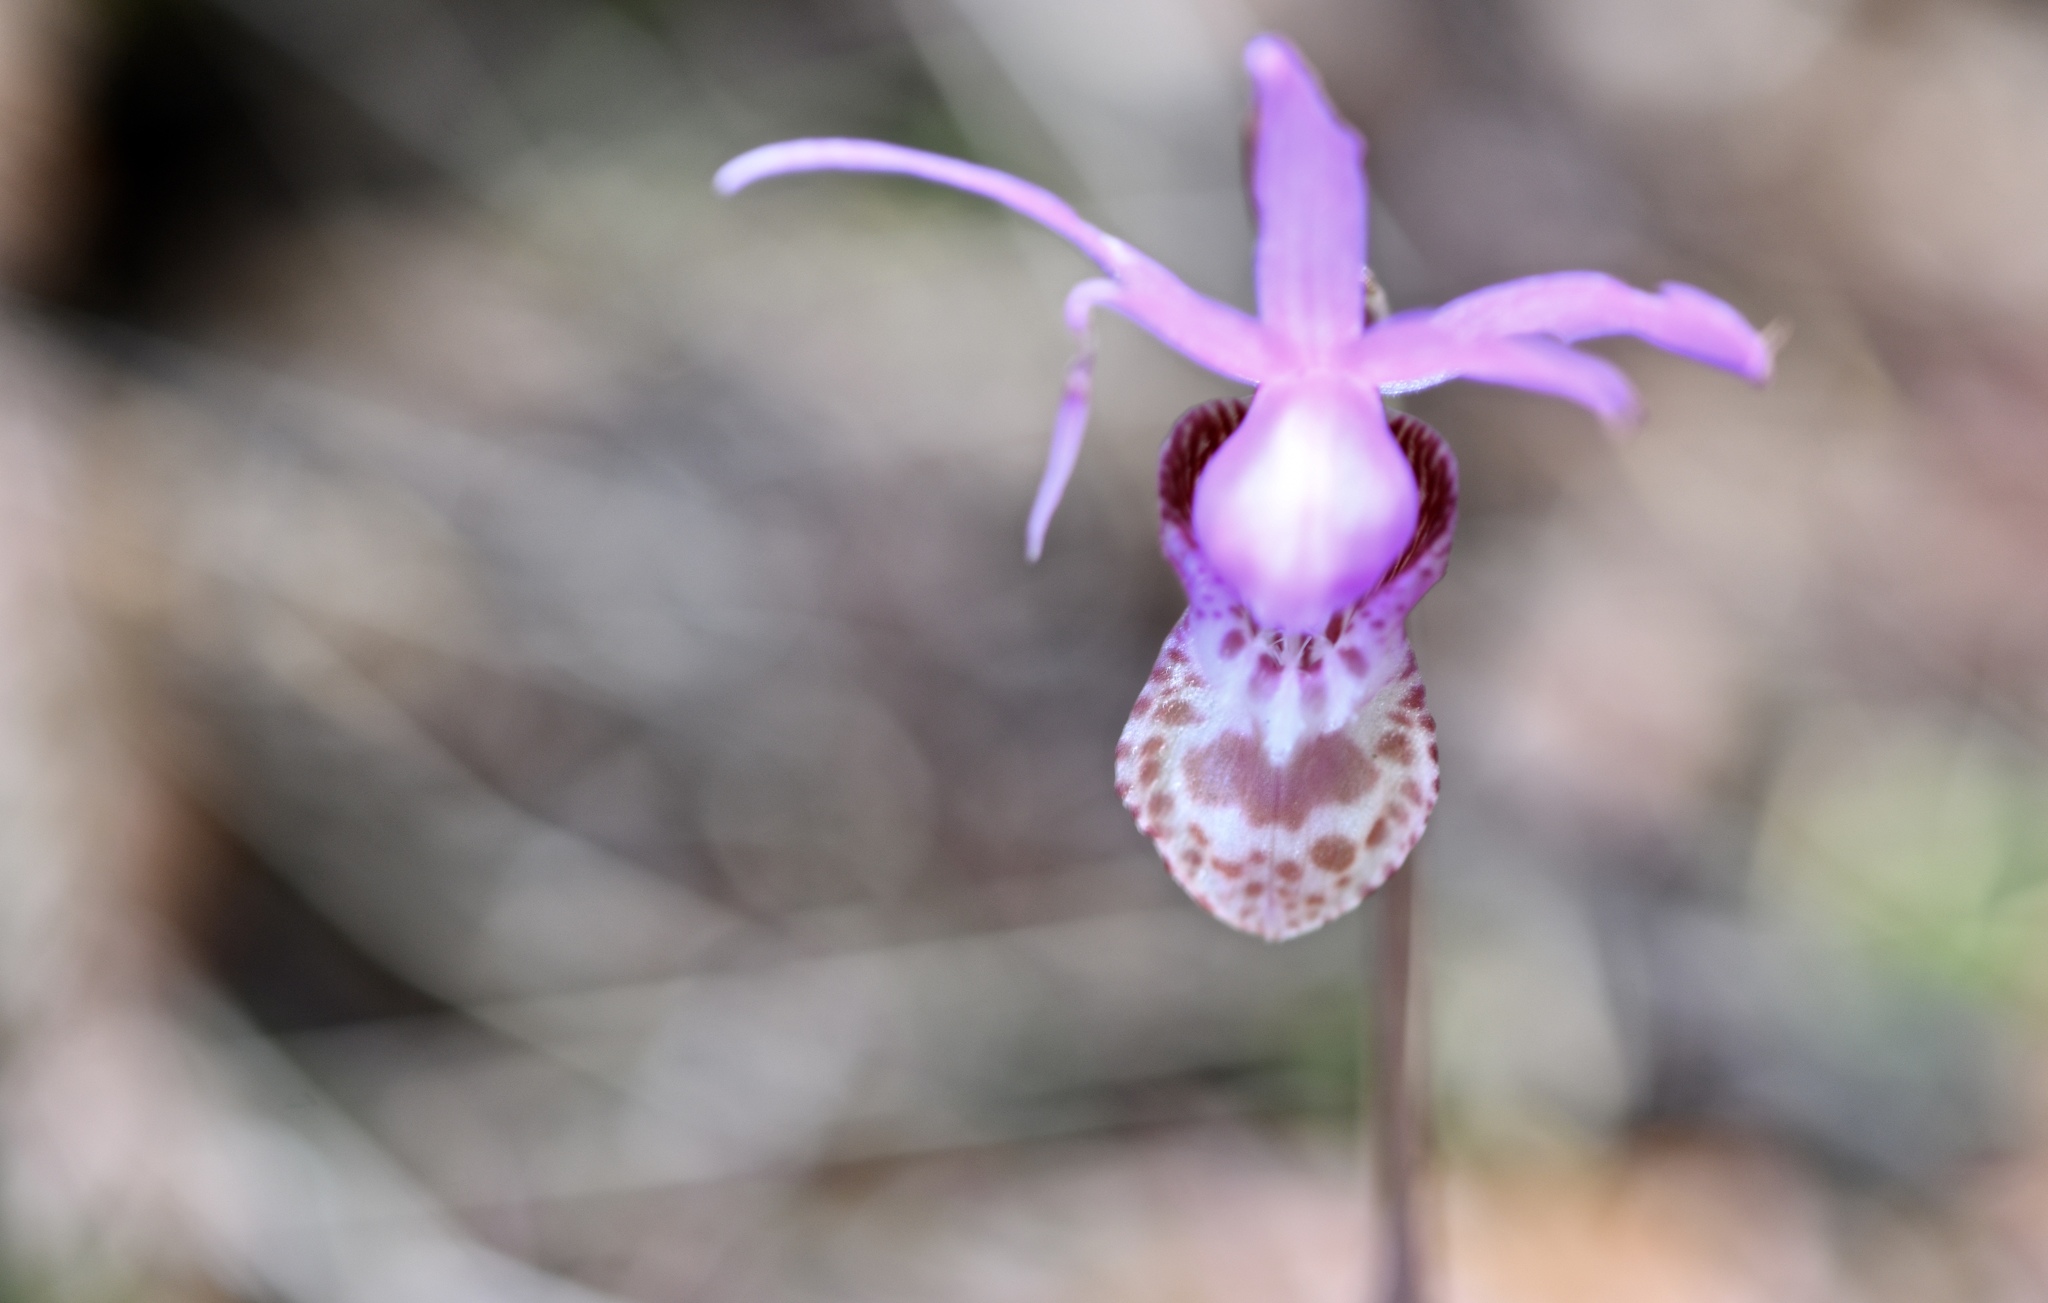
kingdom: Plantae
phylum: Tracheophyta
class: Liliopsida
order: Asparagales
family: Orchidaceae
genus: Calypso
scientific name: Calypso bulbosa
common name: Calypso
